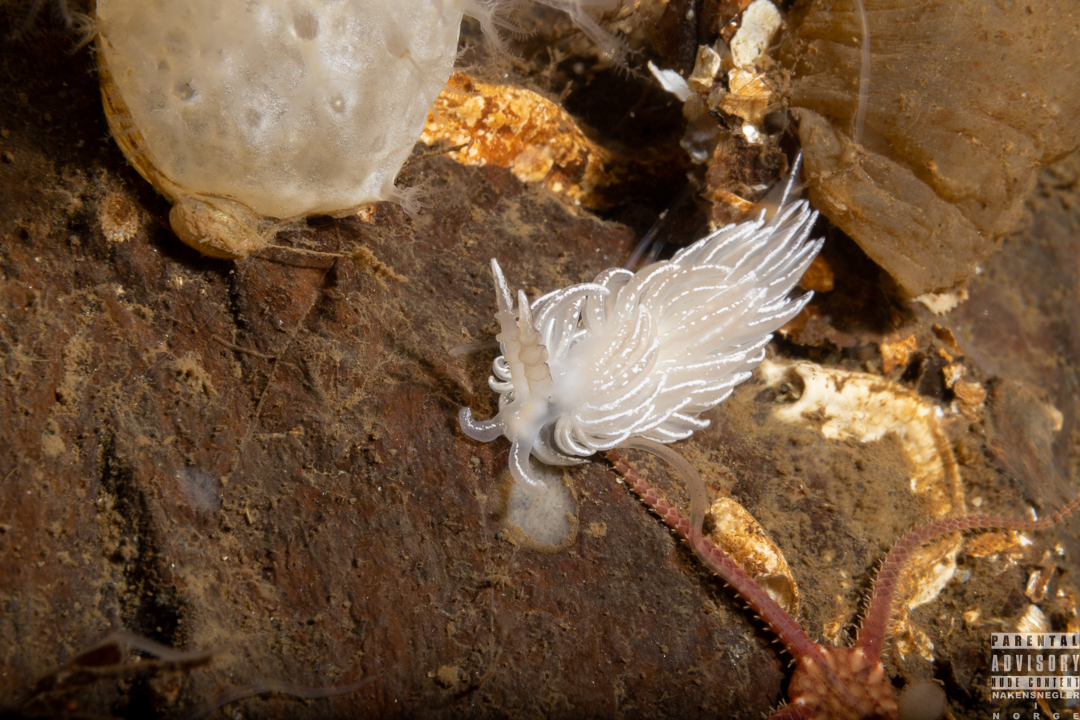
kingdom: Animalia
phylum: Mollusca
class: Gastropoda
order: Nudibranchia
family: Facelinidae
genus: Favorinus
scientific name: Favorinus blianus
